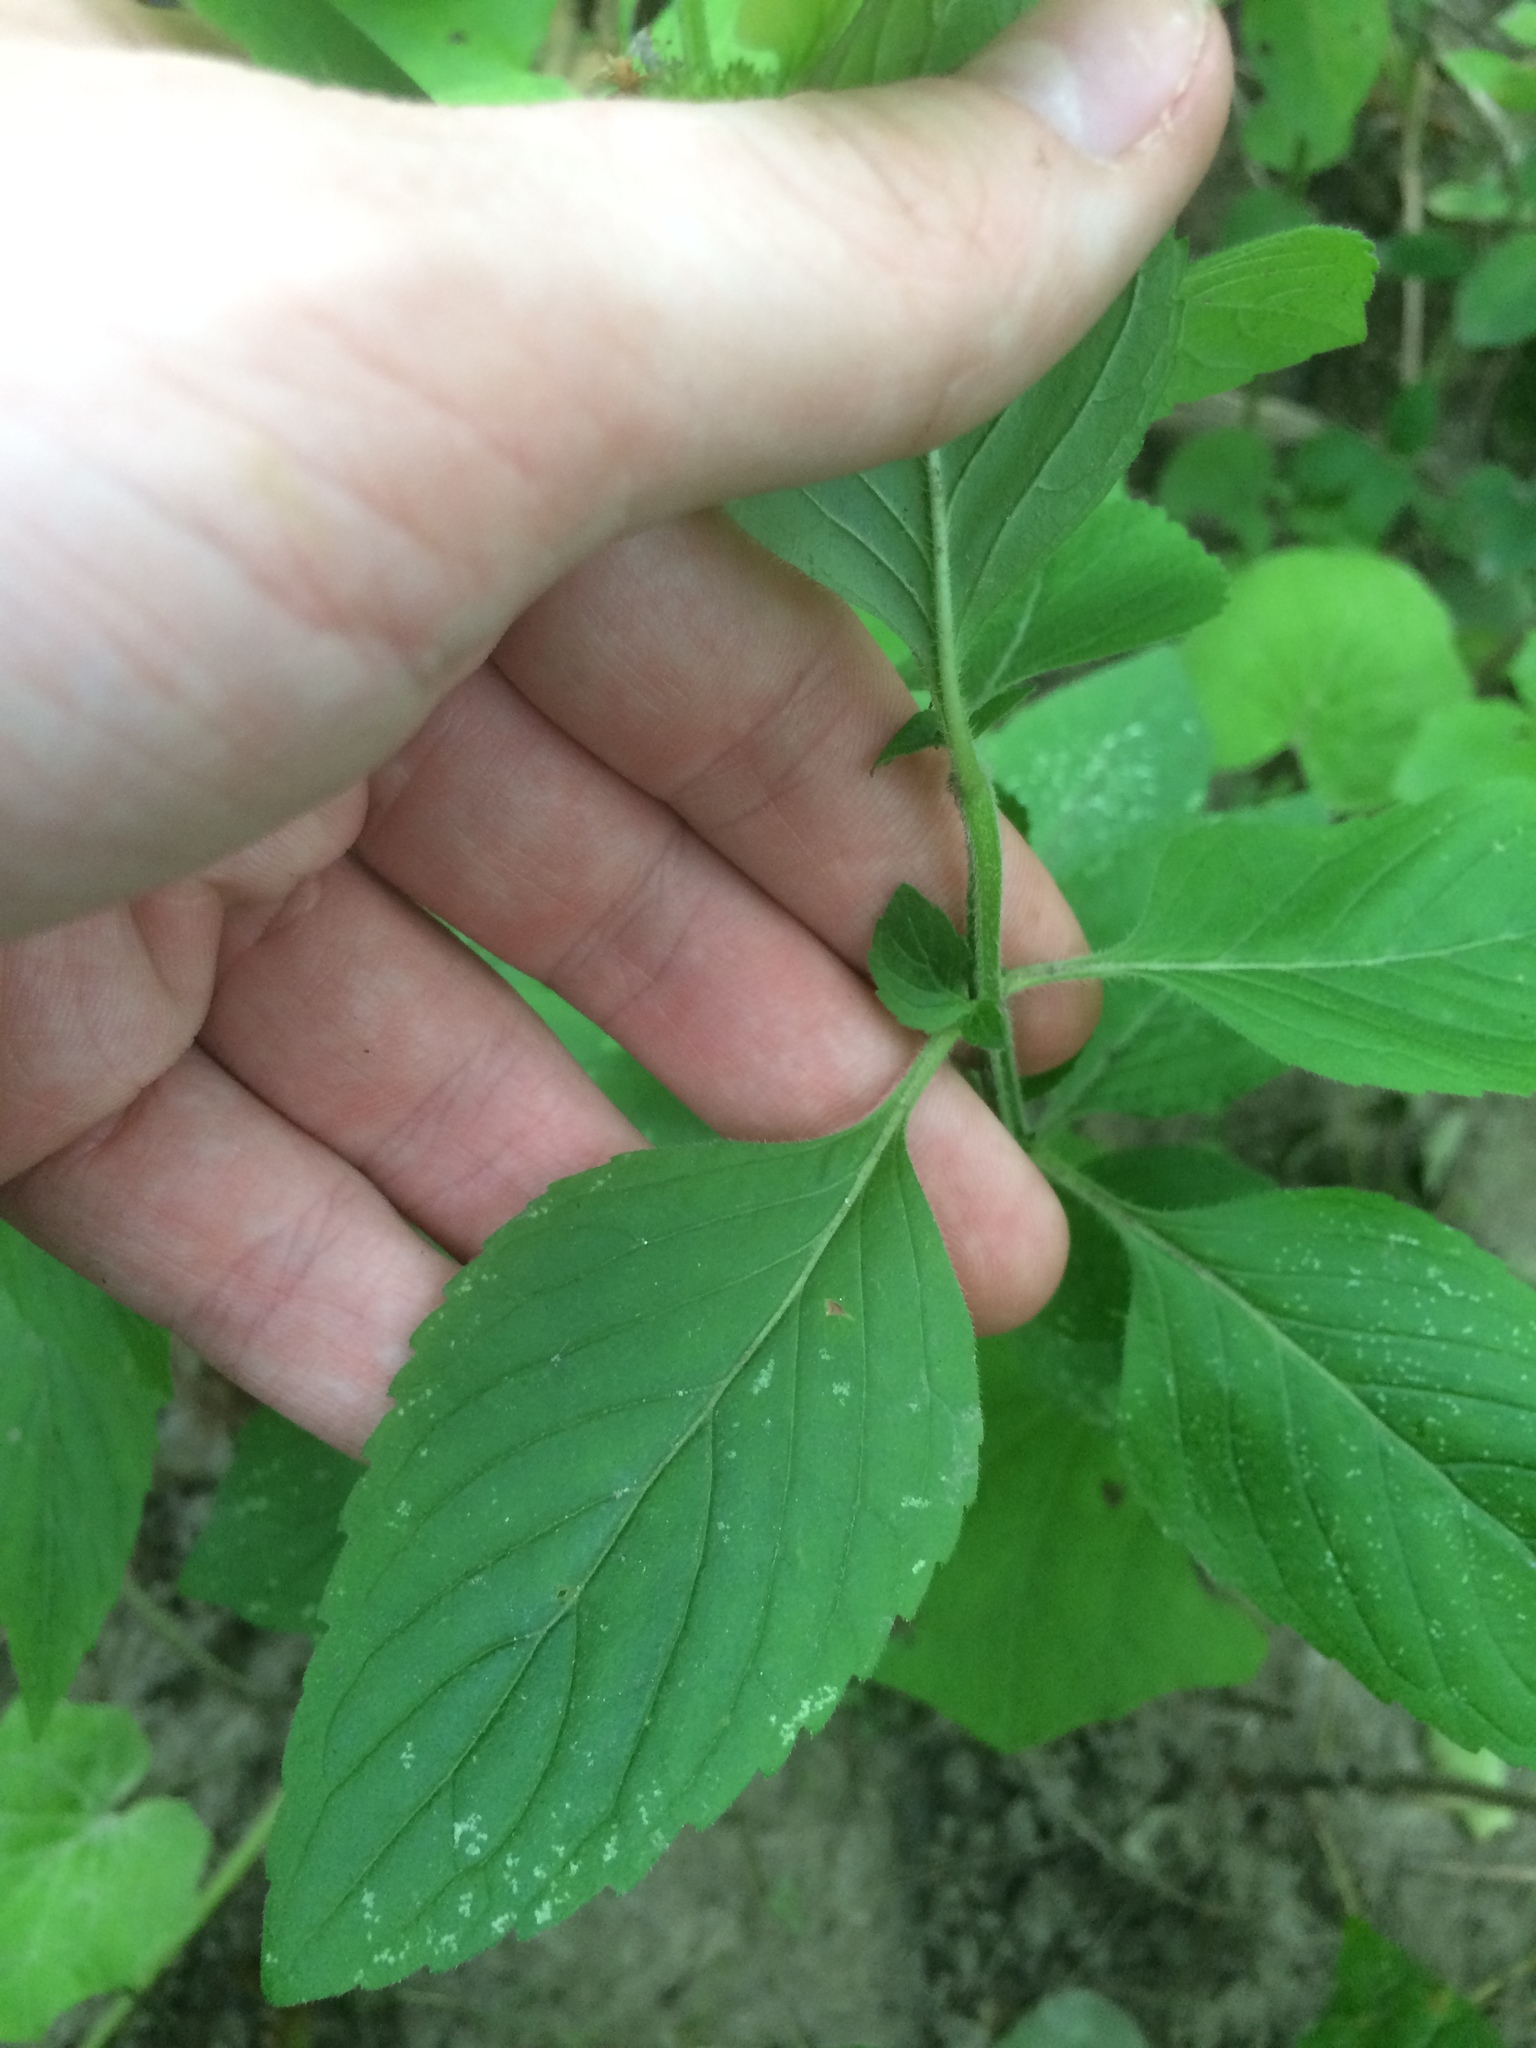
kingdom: Plantae
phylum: Tracheophyta
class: Magnoliopsida
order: Lamiales
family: Lamiaceae
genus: Mentha
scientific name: Mentha arvensis
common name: Corn mint
